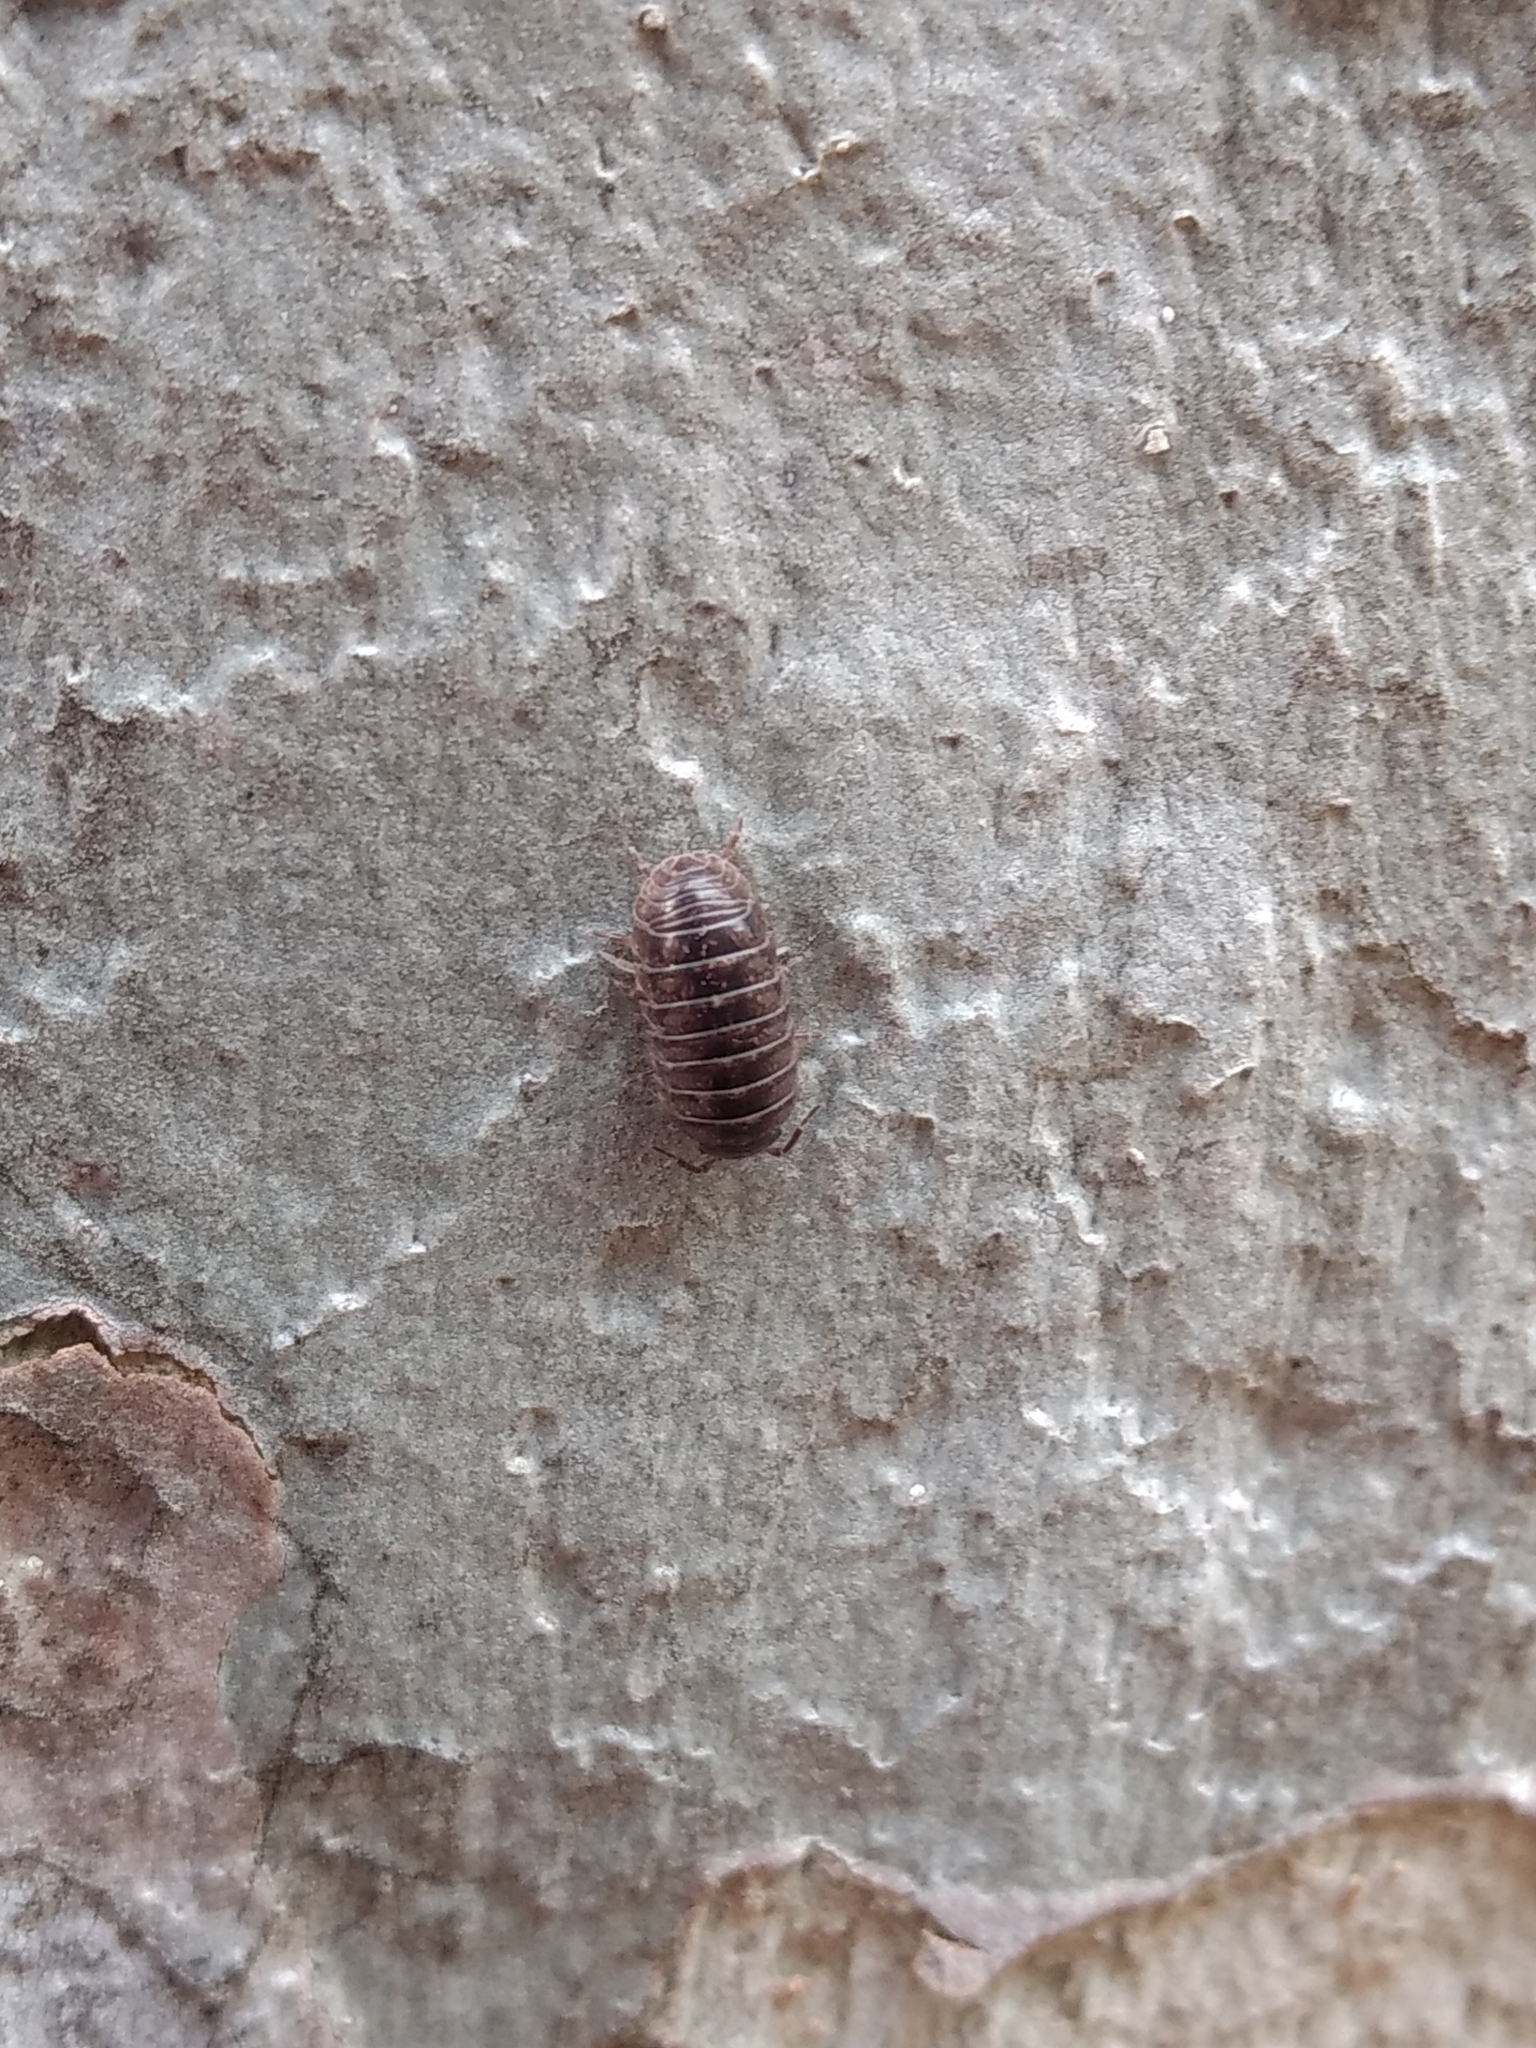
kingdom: Animalia
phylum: Arthropoda
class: Malacostraca
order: Isopoda
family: Armadillidiidae
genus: Armadillidium
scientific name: Armadillidium vulgare
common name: Common pill woodlouse
